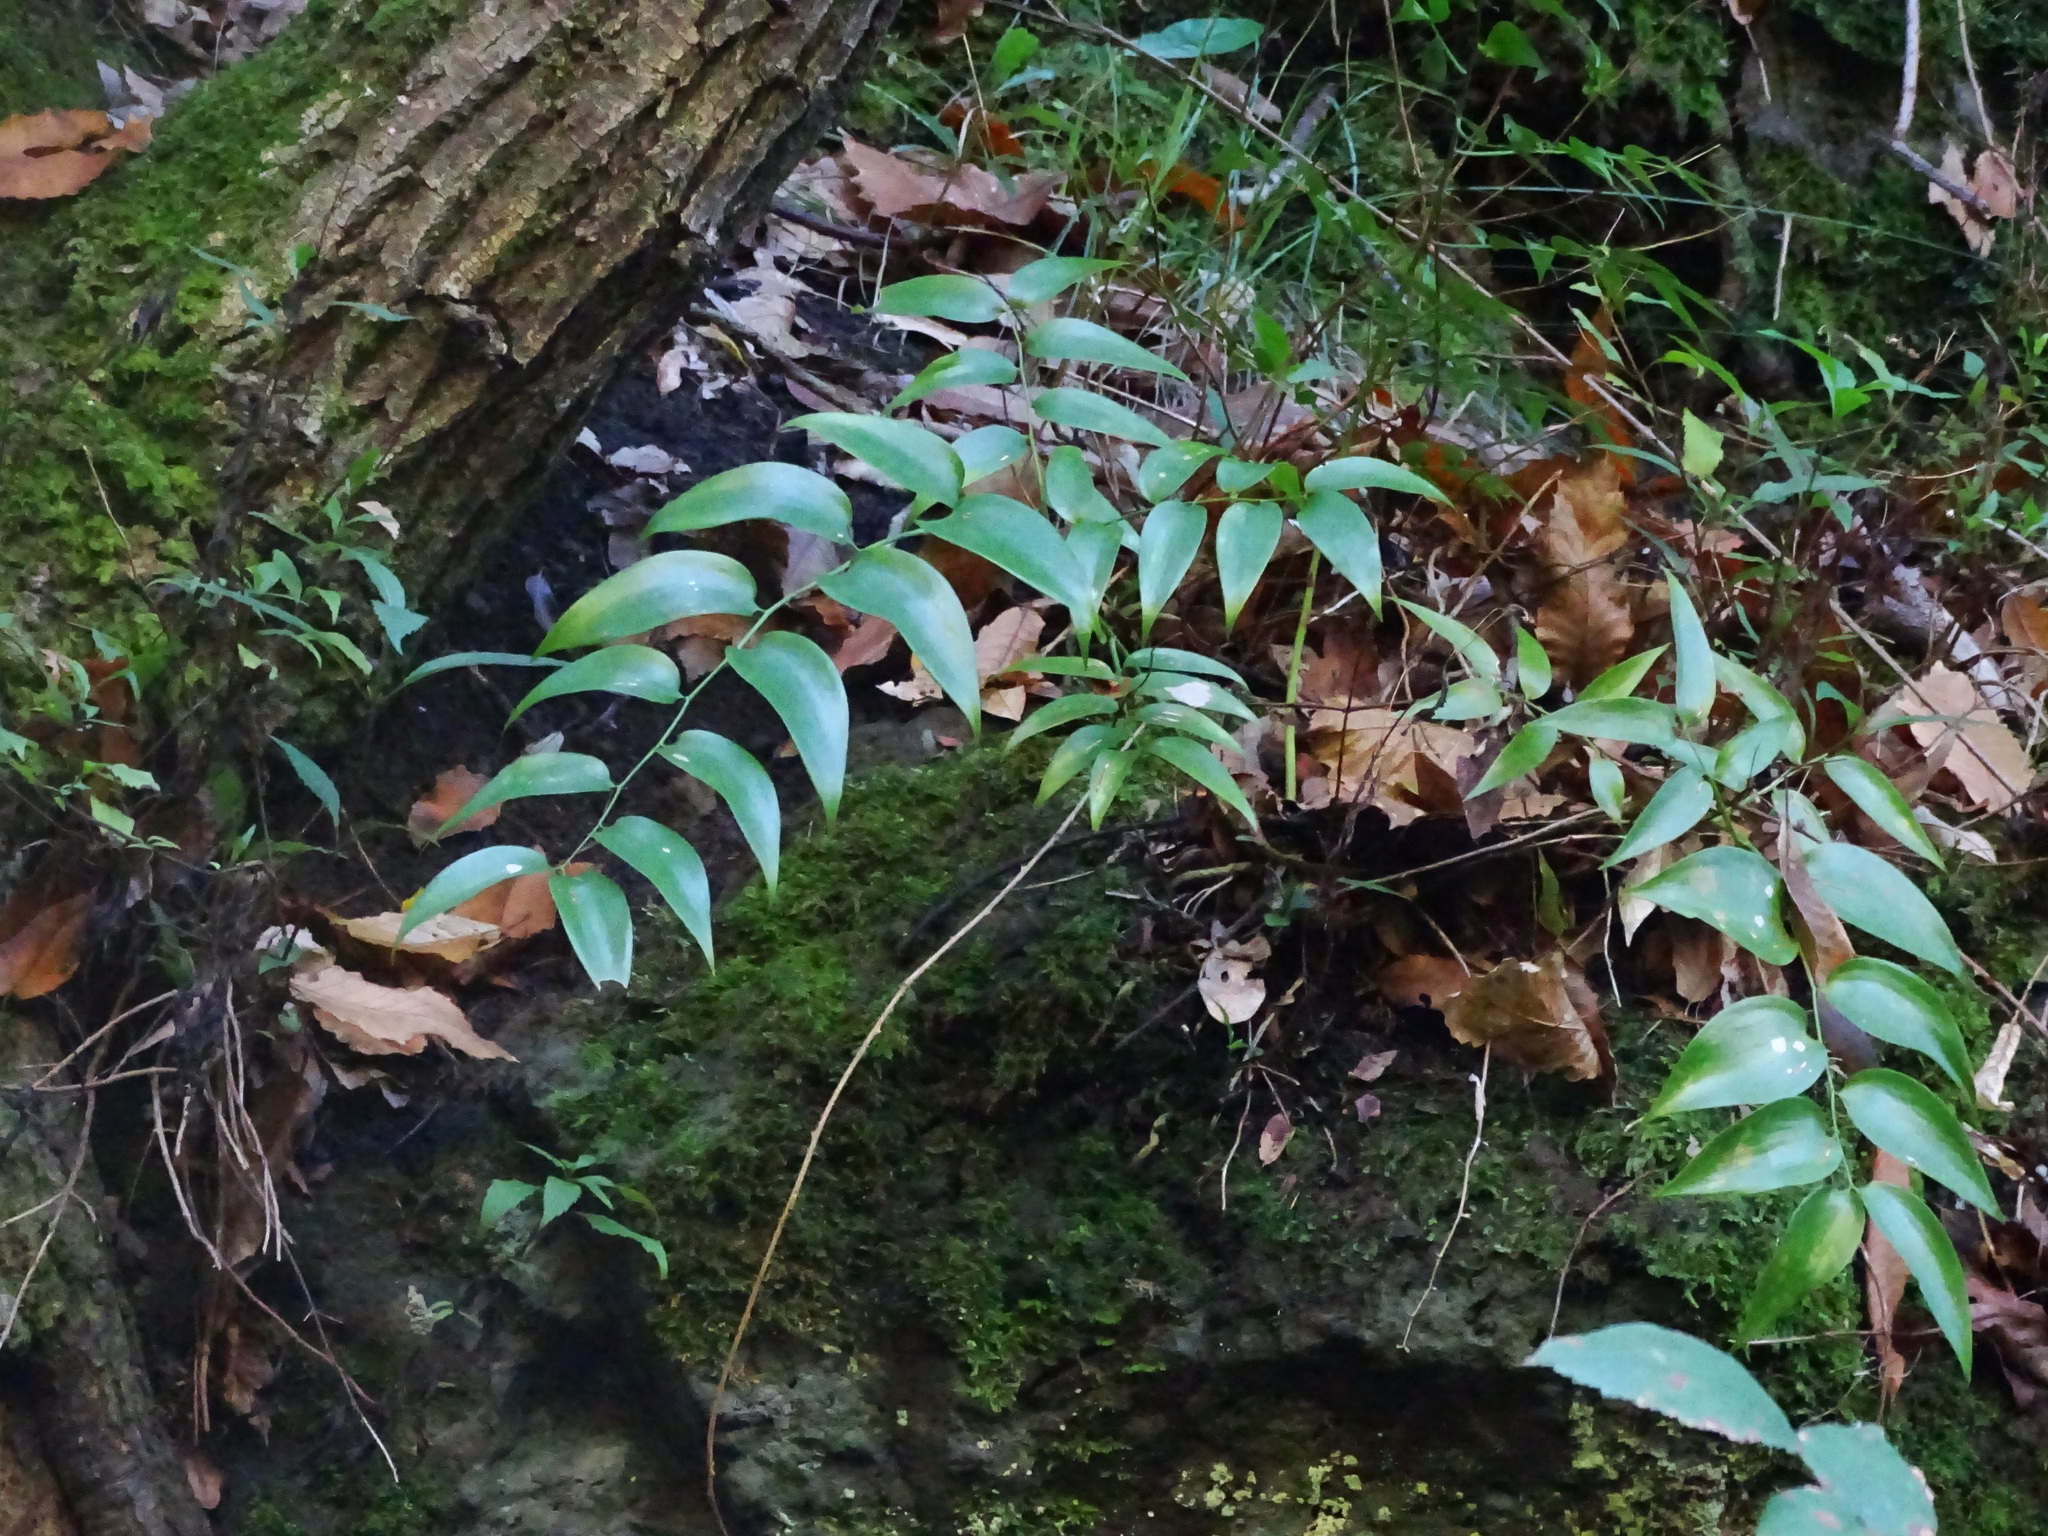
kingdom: Plantae
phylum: Tracheophyta
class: Liliopsida
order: Asparagales
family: Asparagaceae
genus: Semele
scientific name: Semele androgyna
